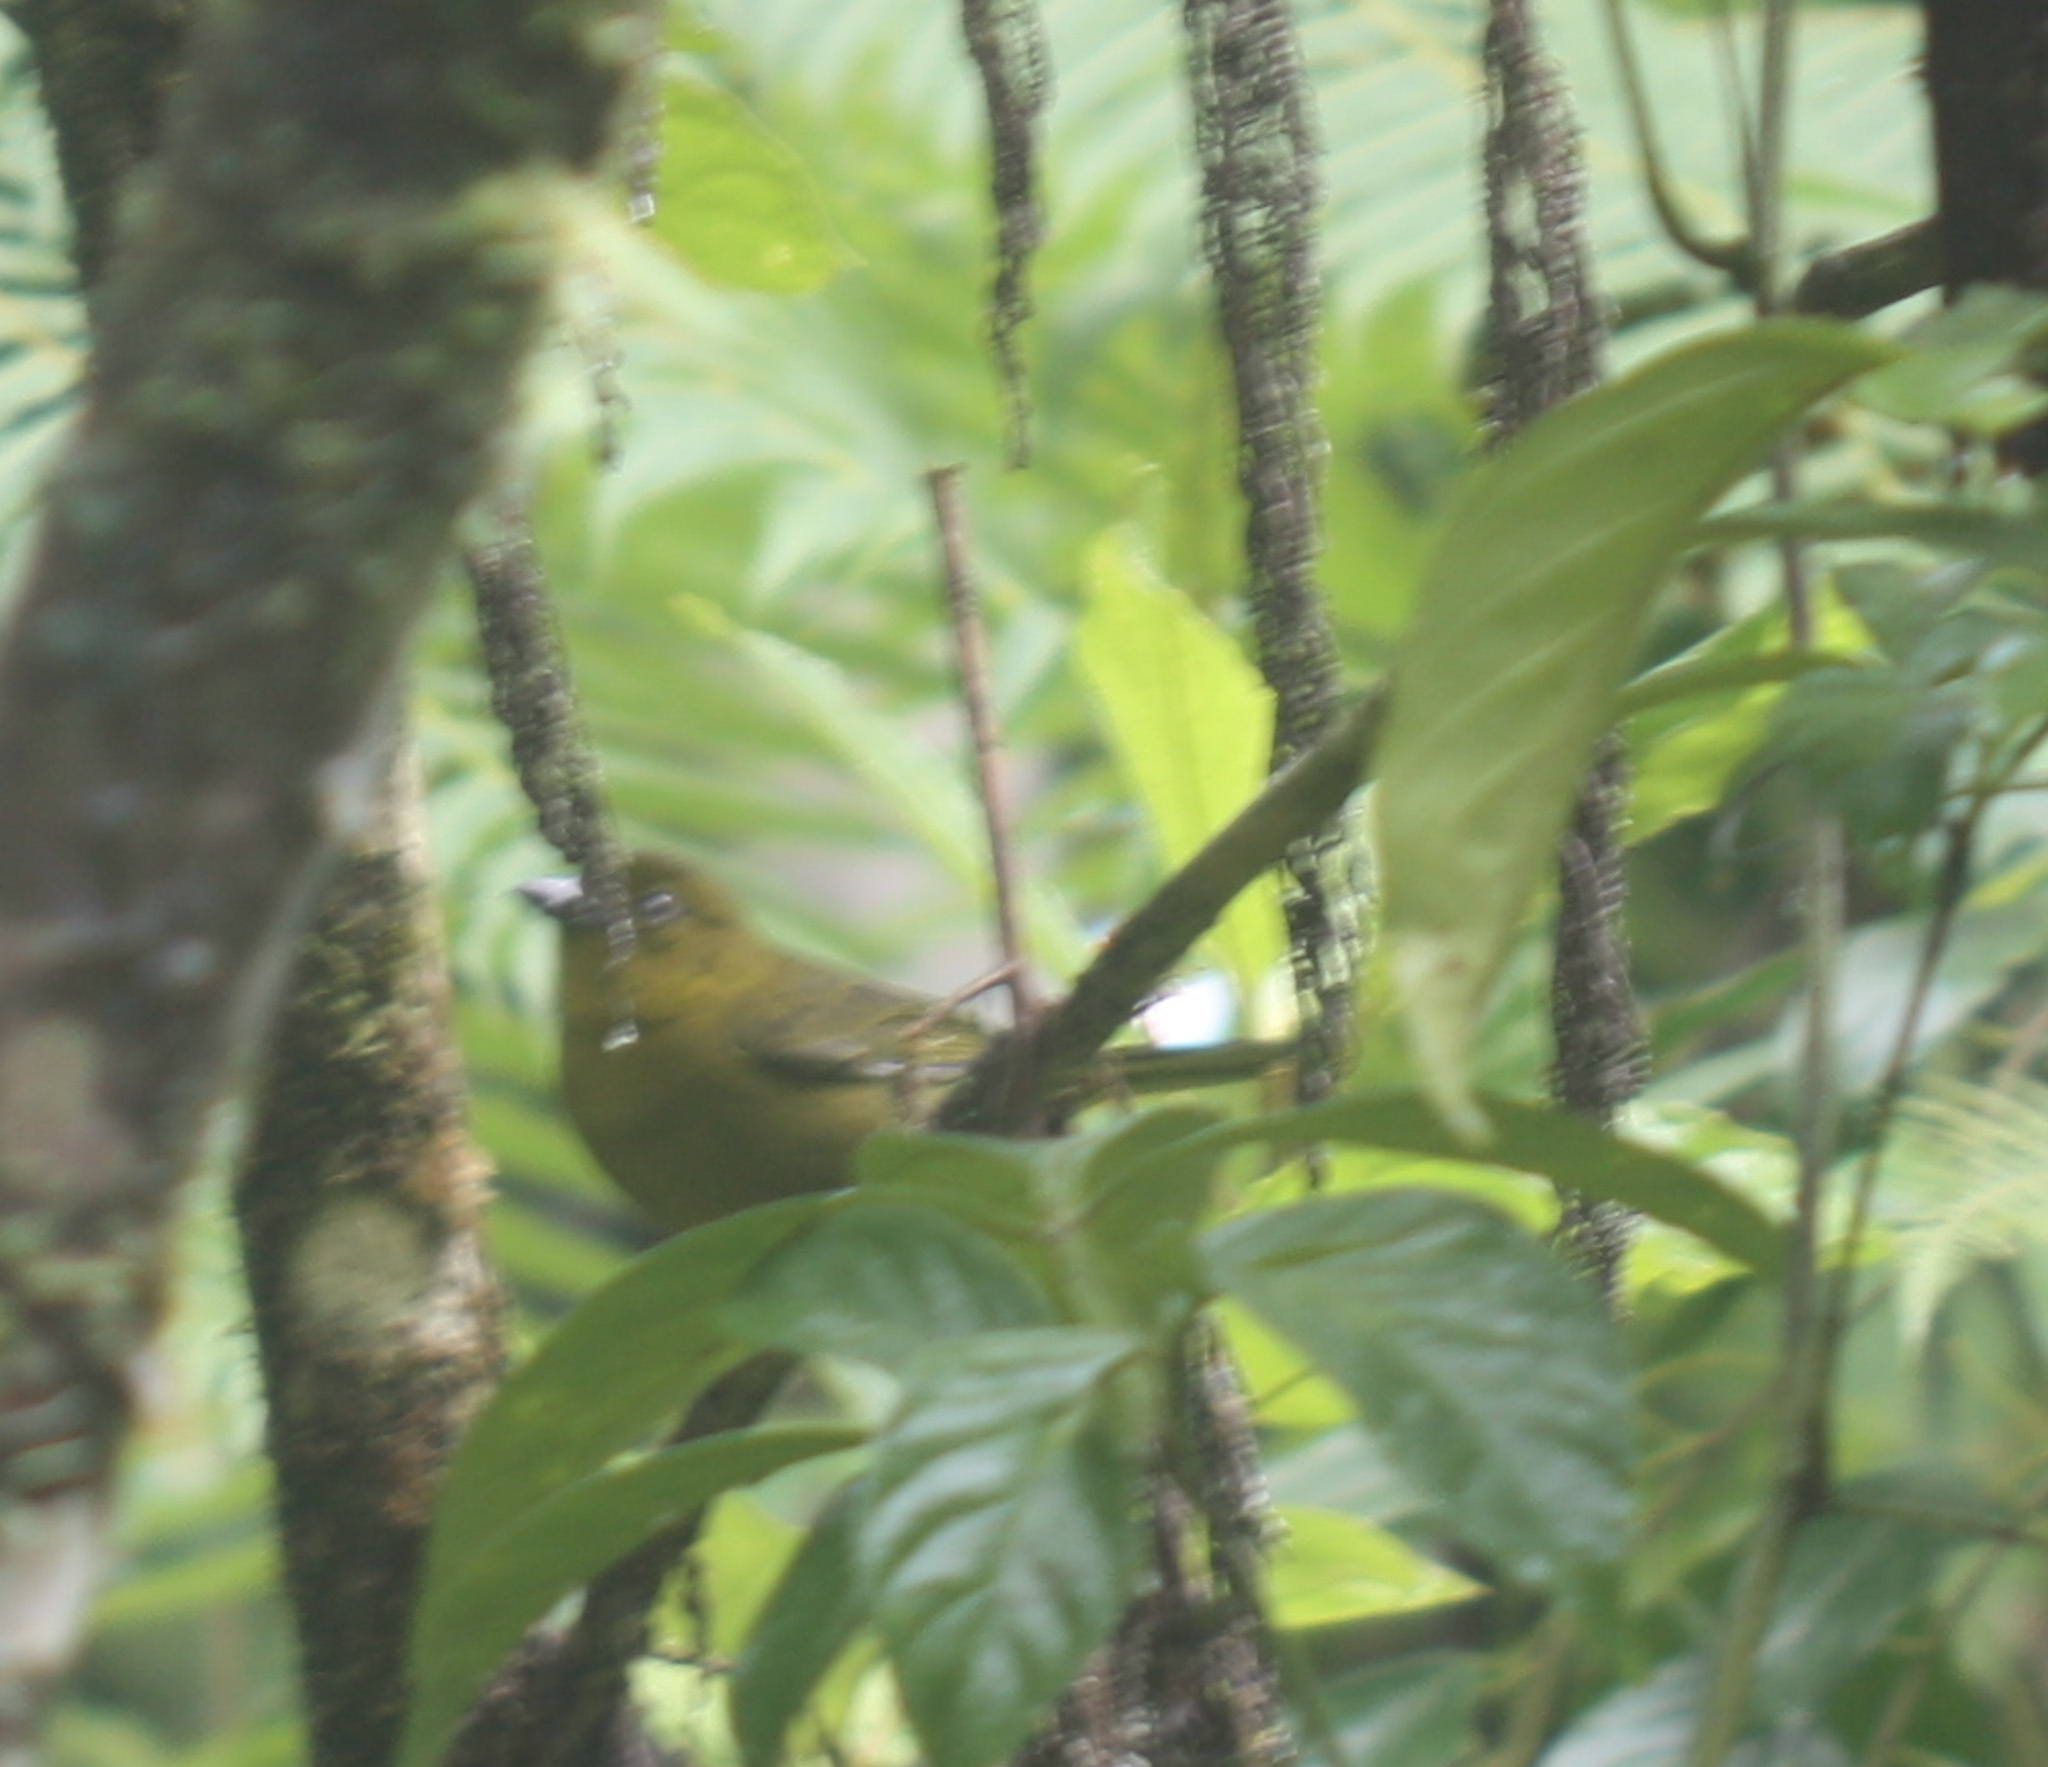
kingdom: Animalia
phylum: Chordata
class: Aves
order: Passeriformes
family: Cardinalidae
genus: Chlorothraupis
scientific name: Chlorothraupis carmioli
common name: Carmiol's tanager
